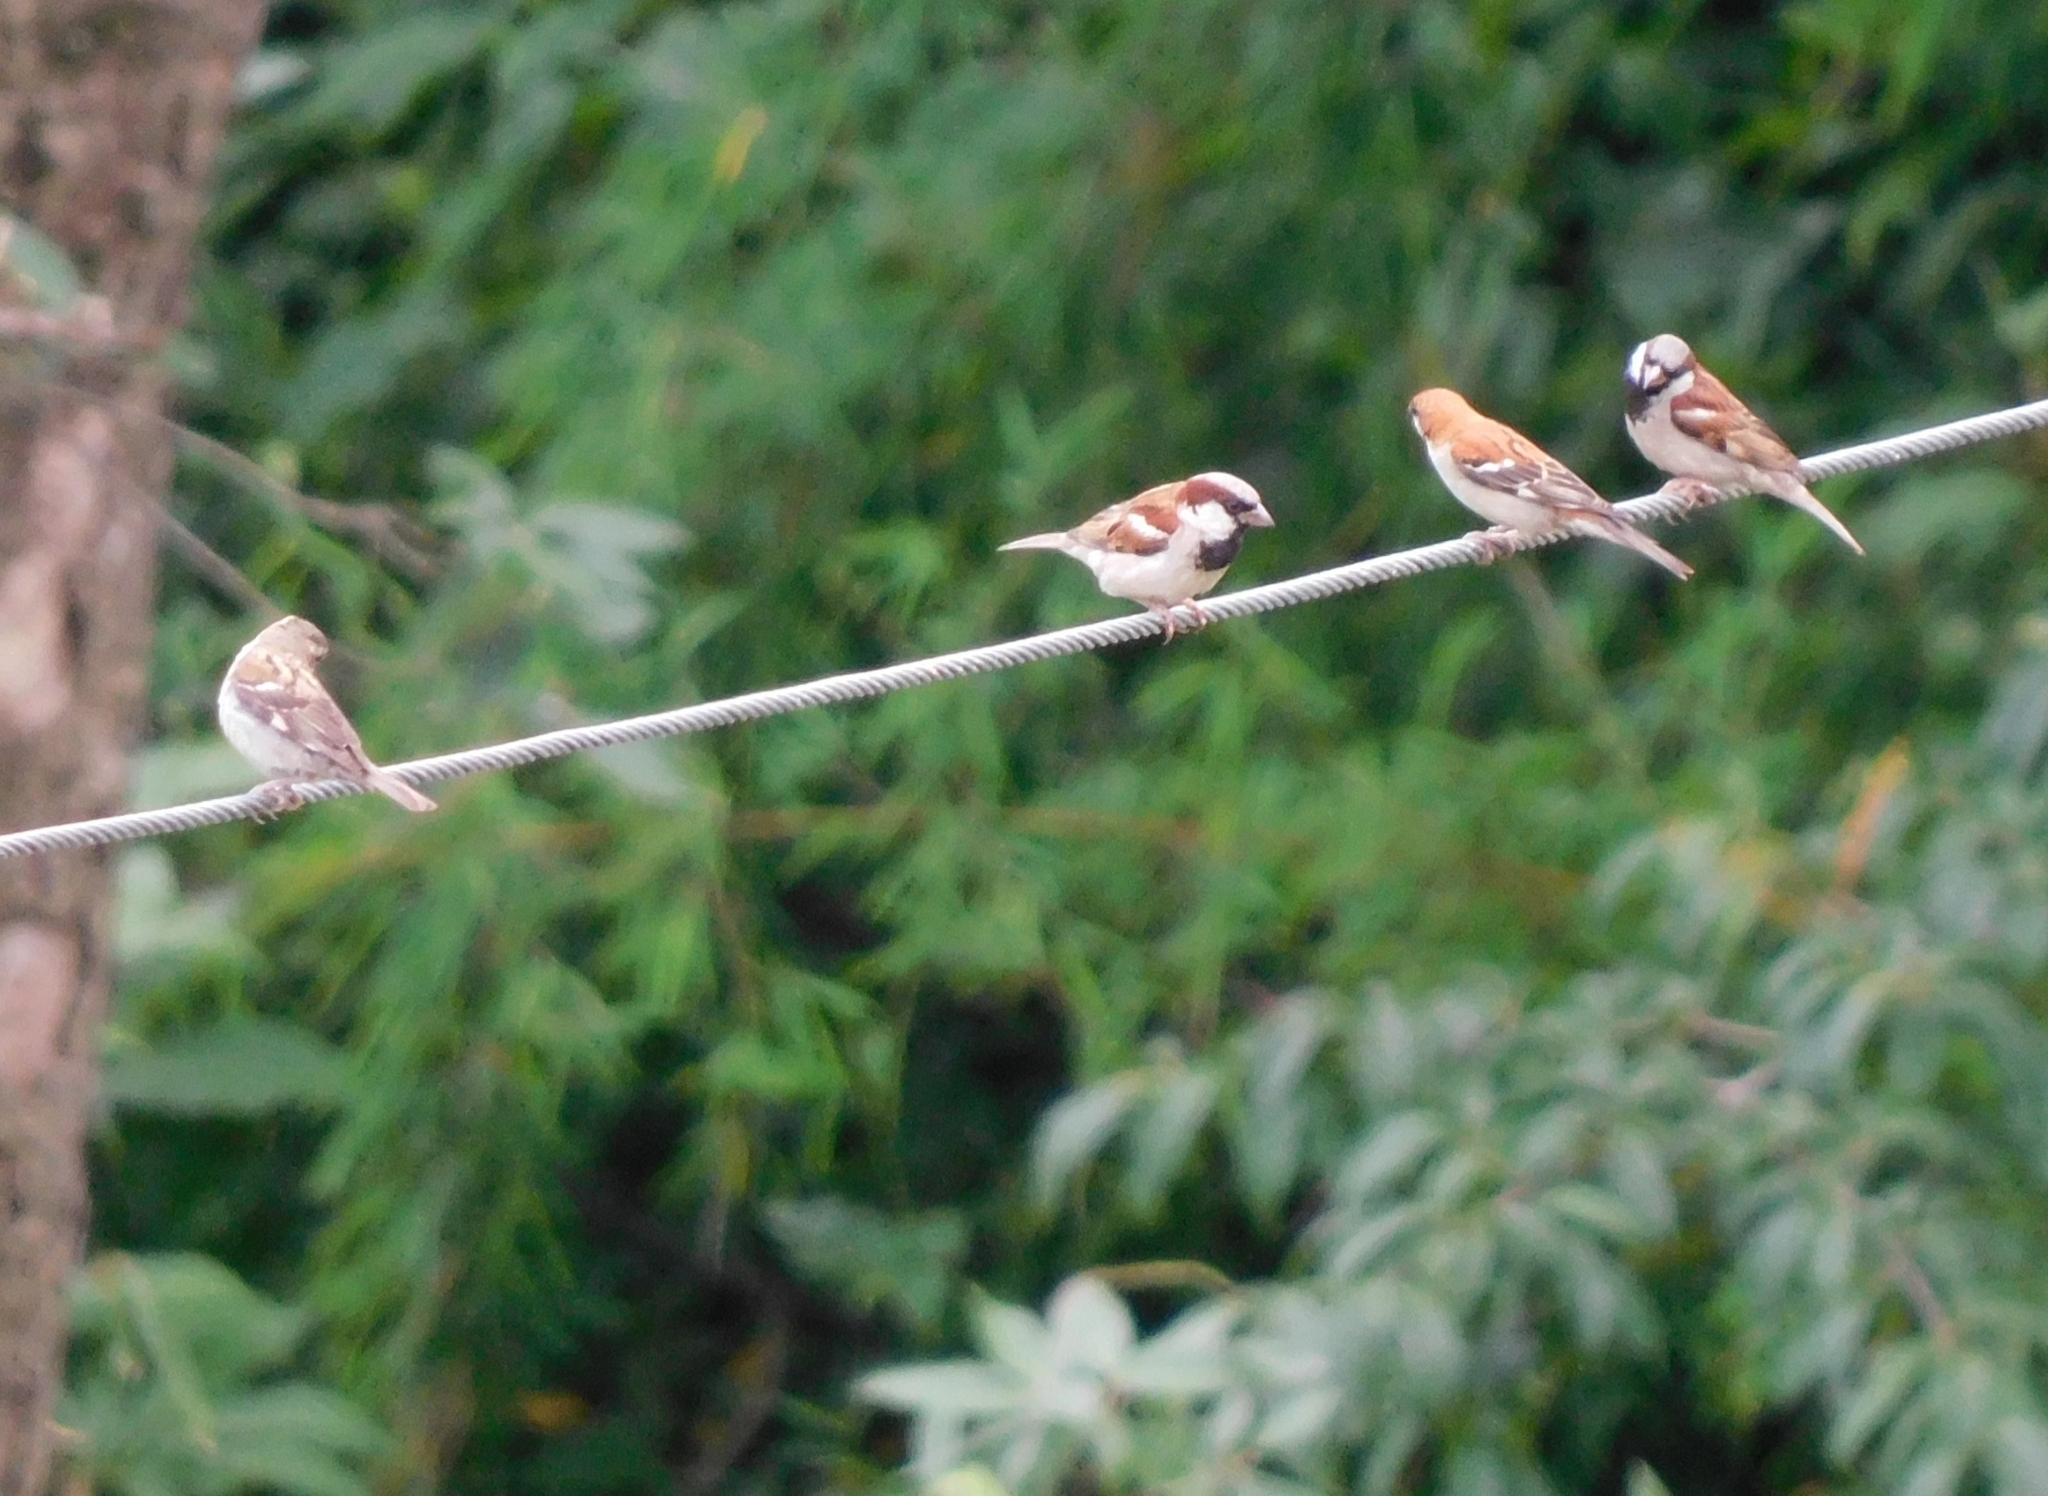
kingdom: Animalia
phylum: Chordata
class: Aves
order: Passeriformes
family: Passeridae
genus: Passer
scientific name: Passer cinnamomeus
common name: Russet sparrow
